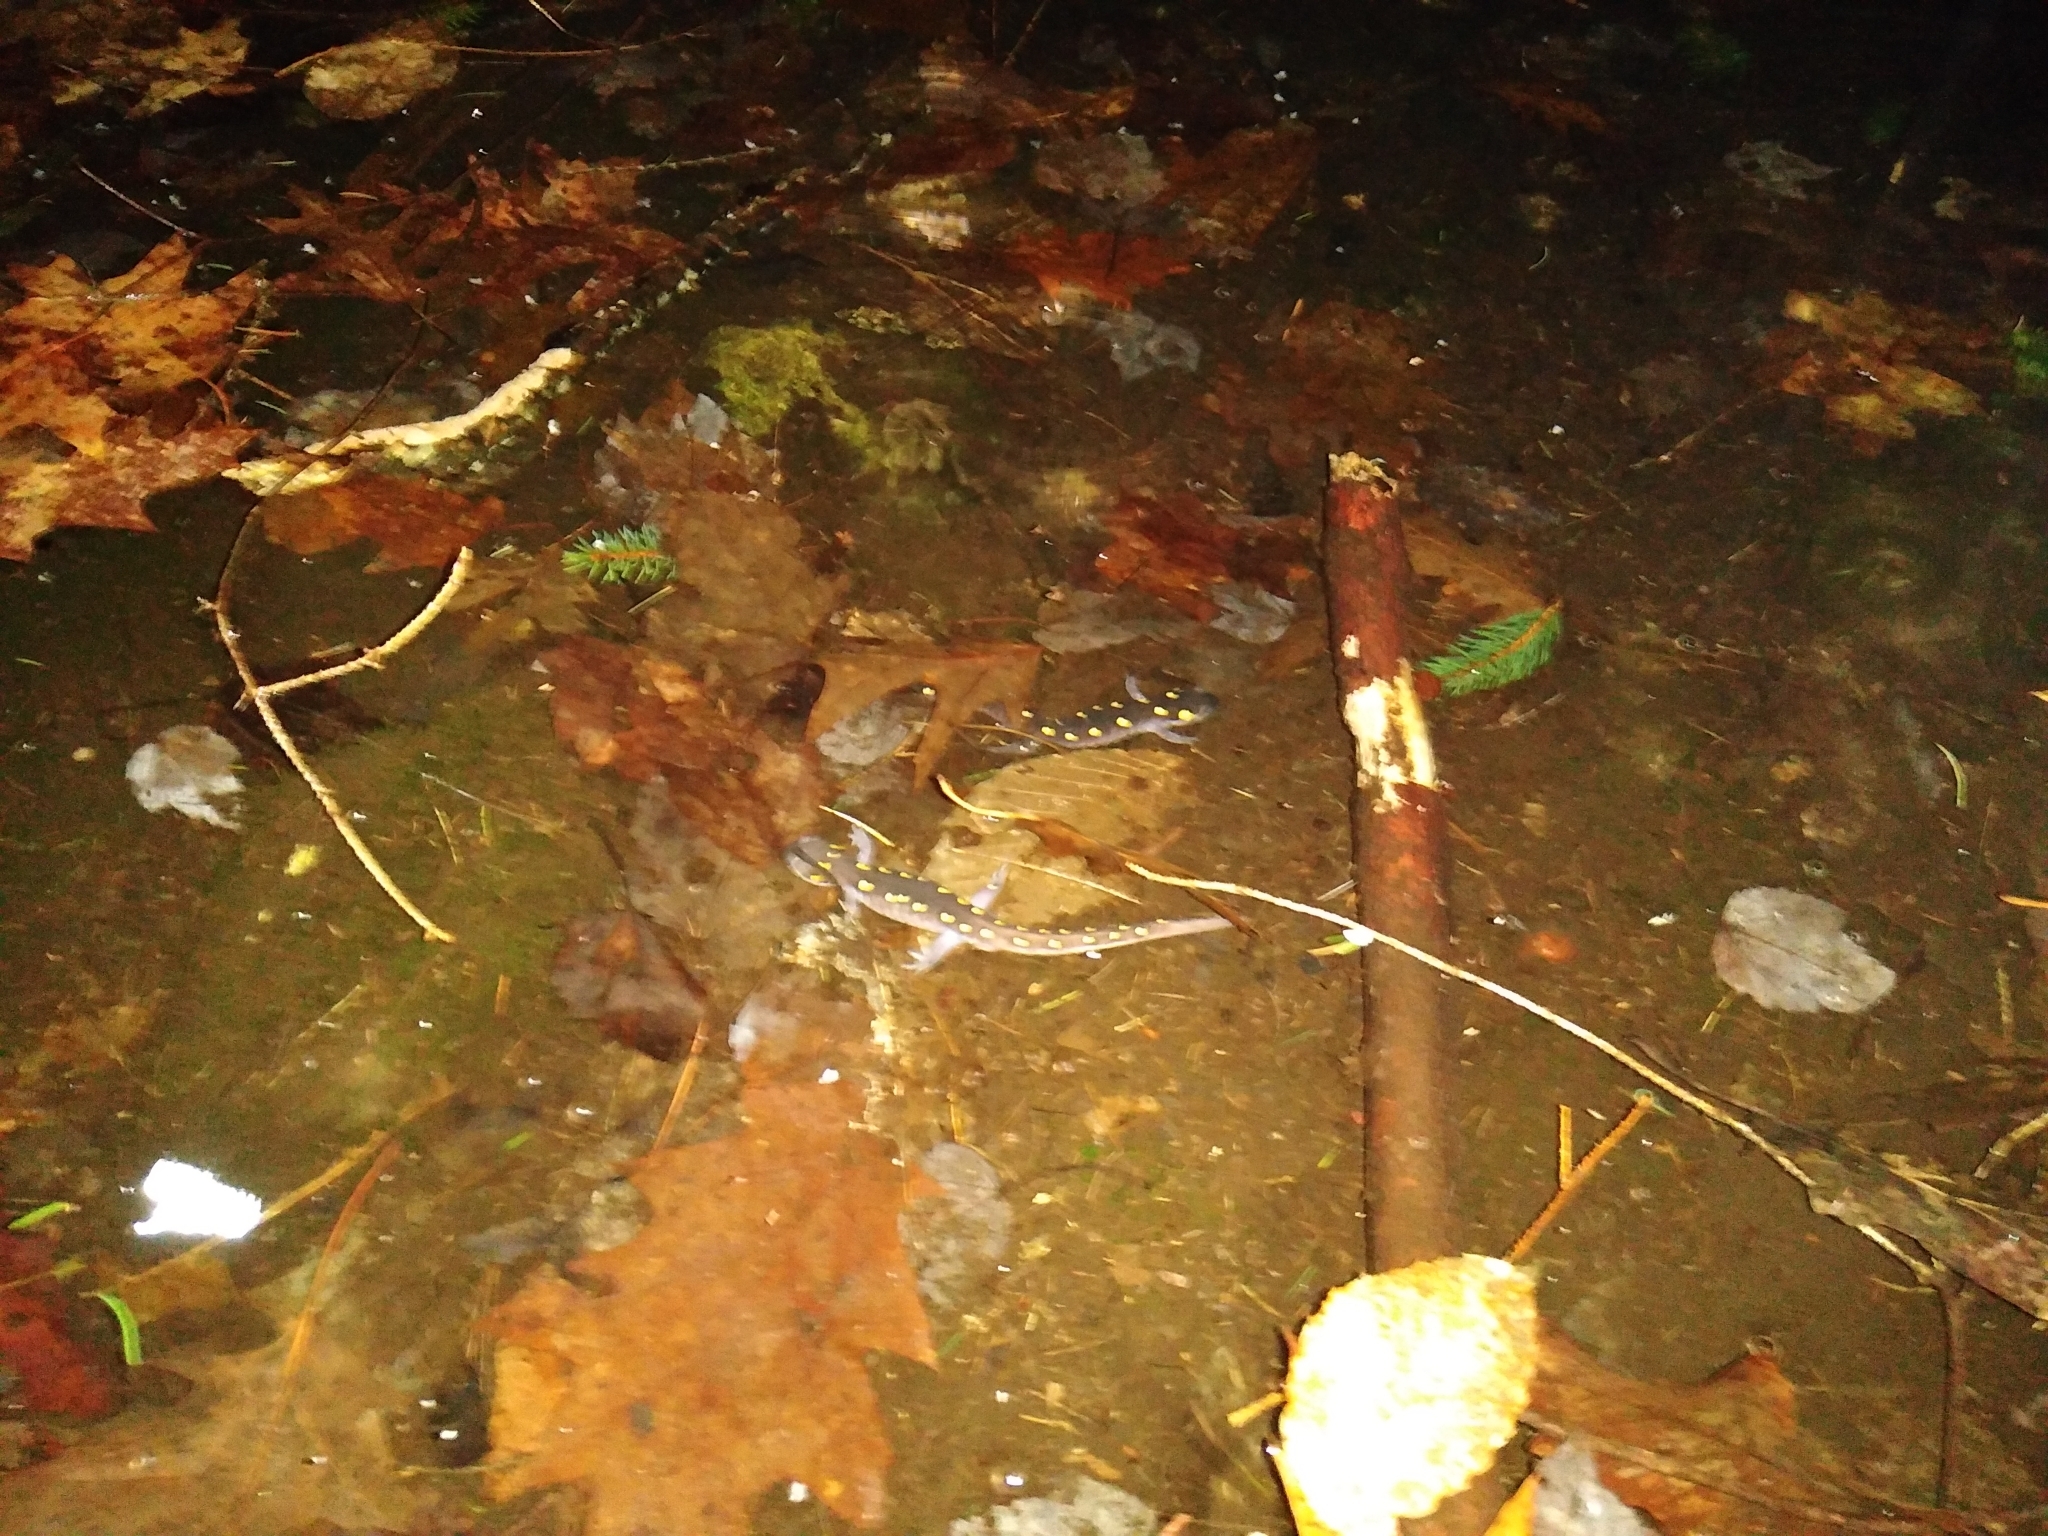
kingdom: Animalia
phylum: Chordata
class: Amphibia
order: Caudata
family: Ambystomatidae
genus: Ambystoma
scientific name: Ambystoma maculatum
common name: Spotted salamander
